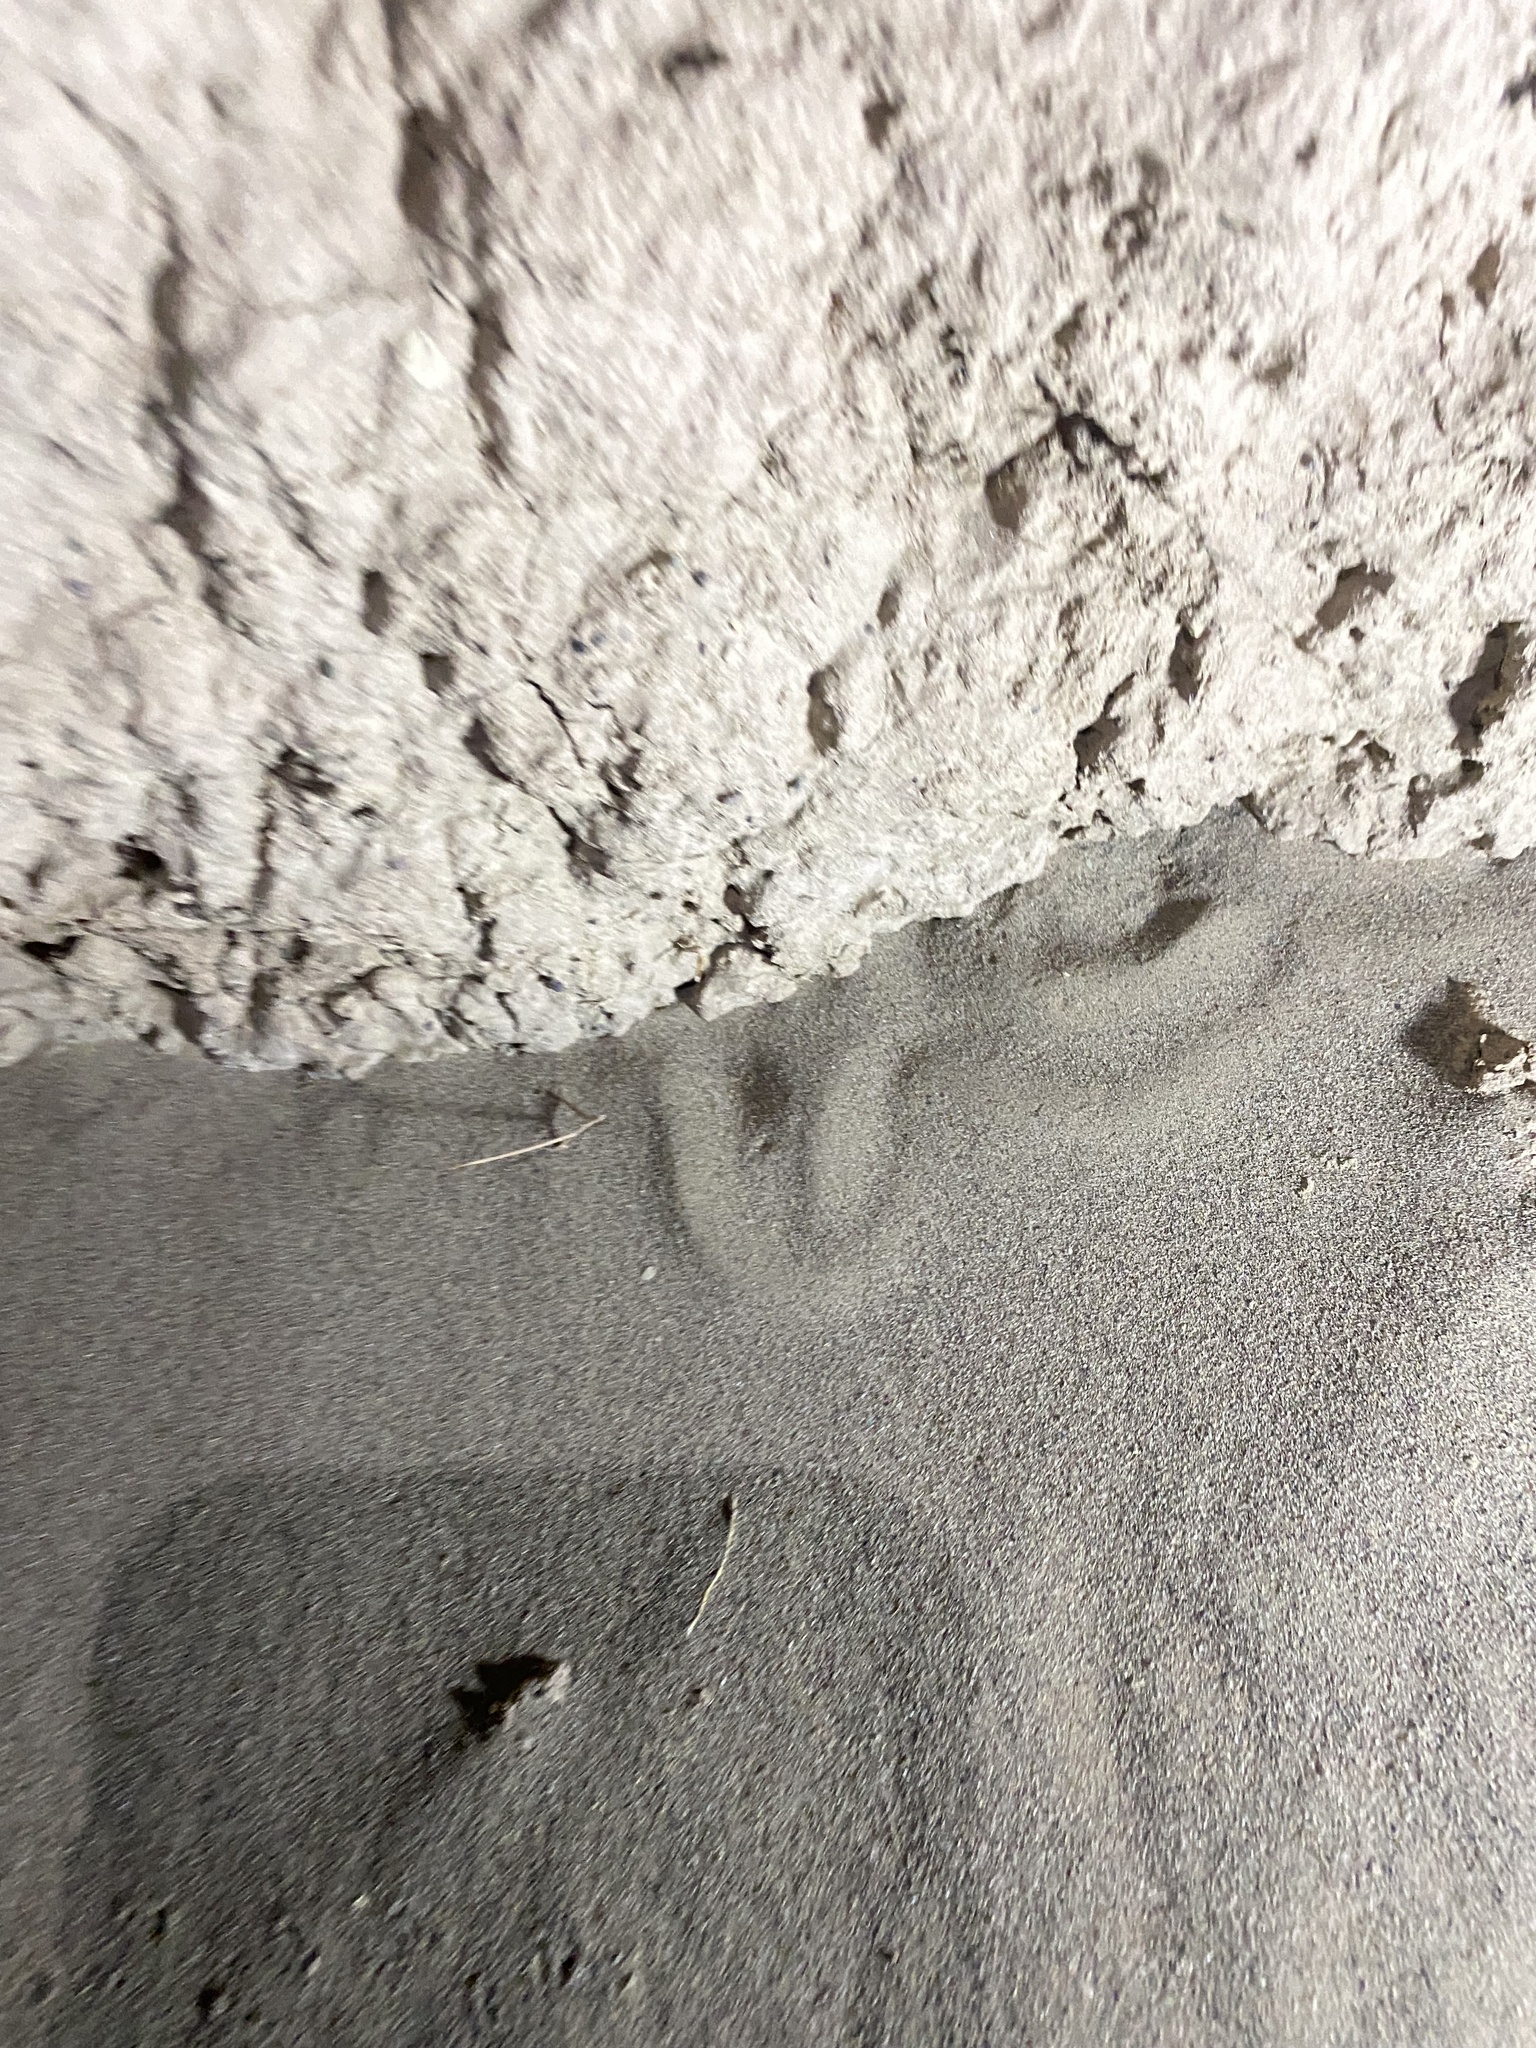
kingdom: Animalia
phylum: Chordata
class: Squamata
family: Scincidae
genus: Ophiomorus
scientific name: Ophiomorus nuchalis
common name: Plateau snake skink
